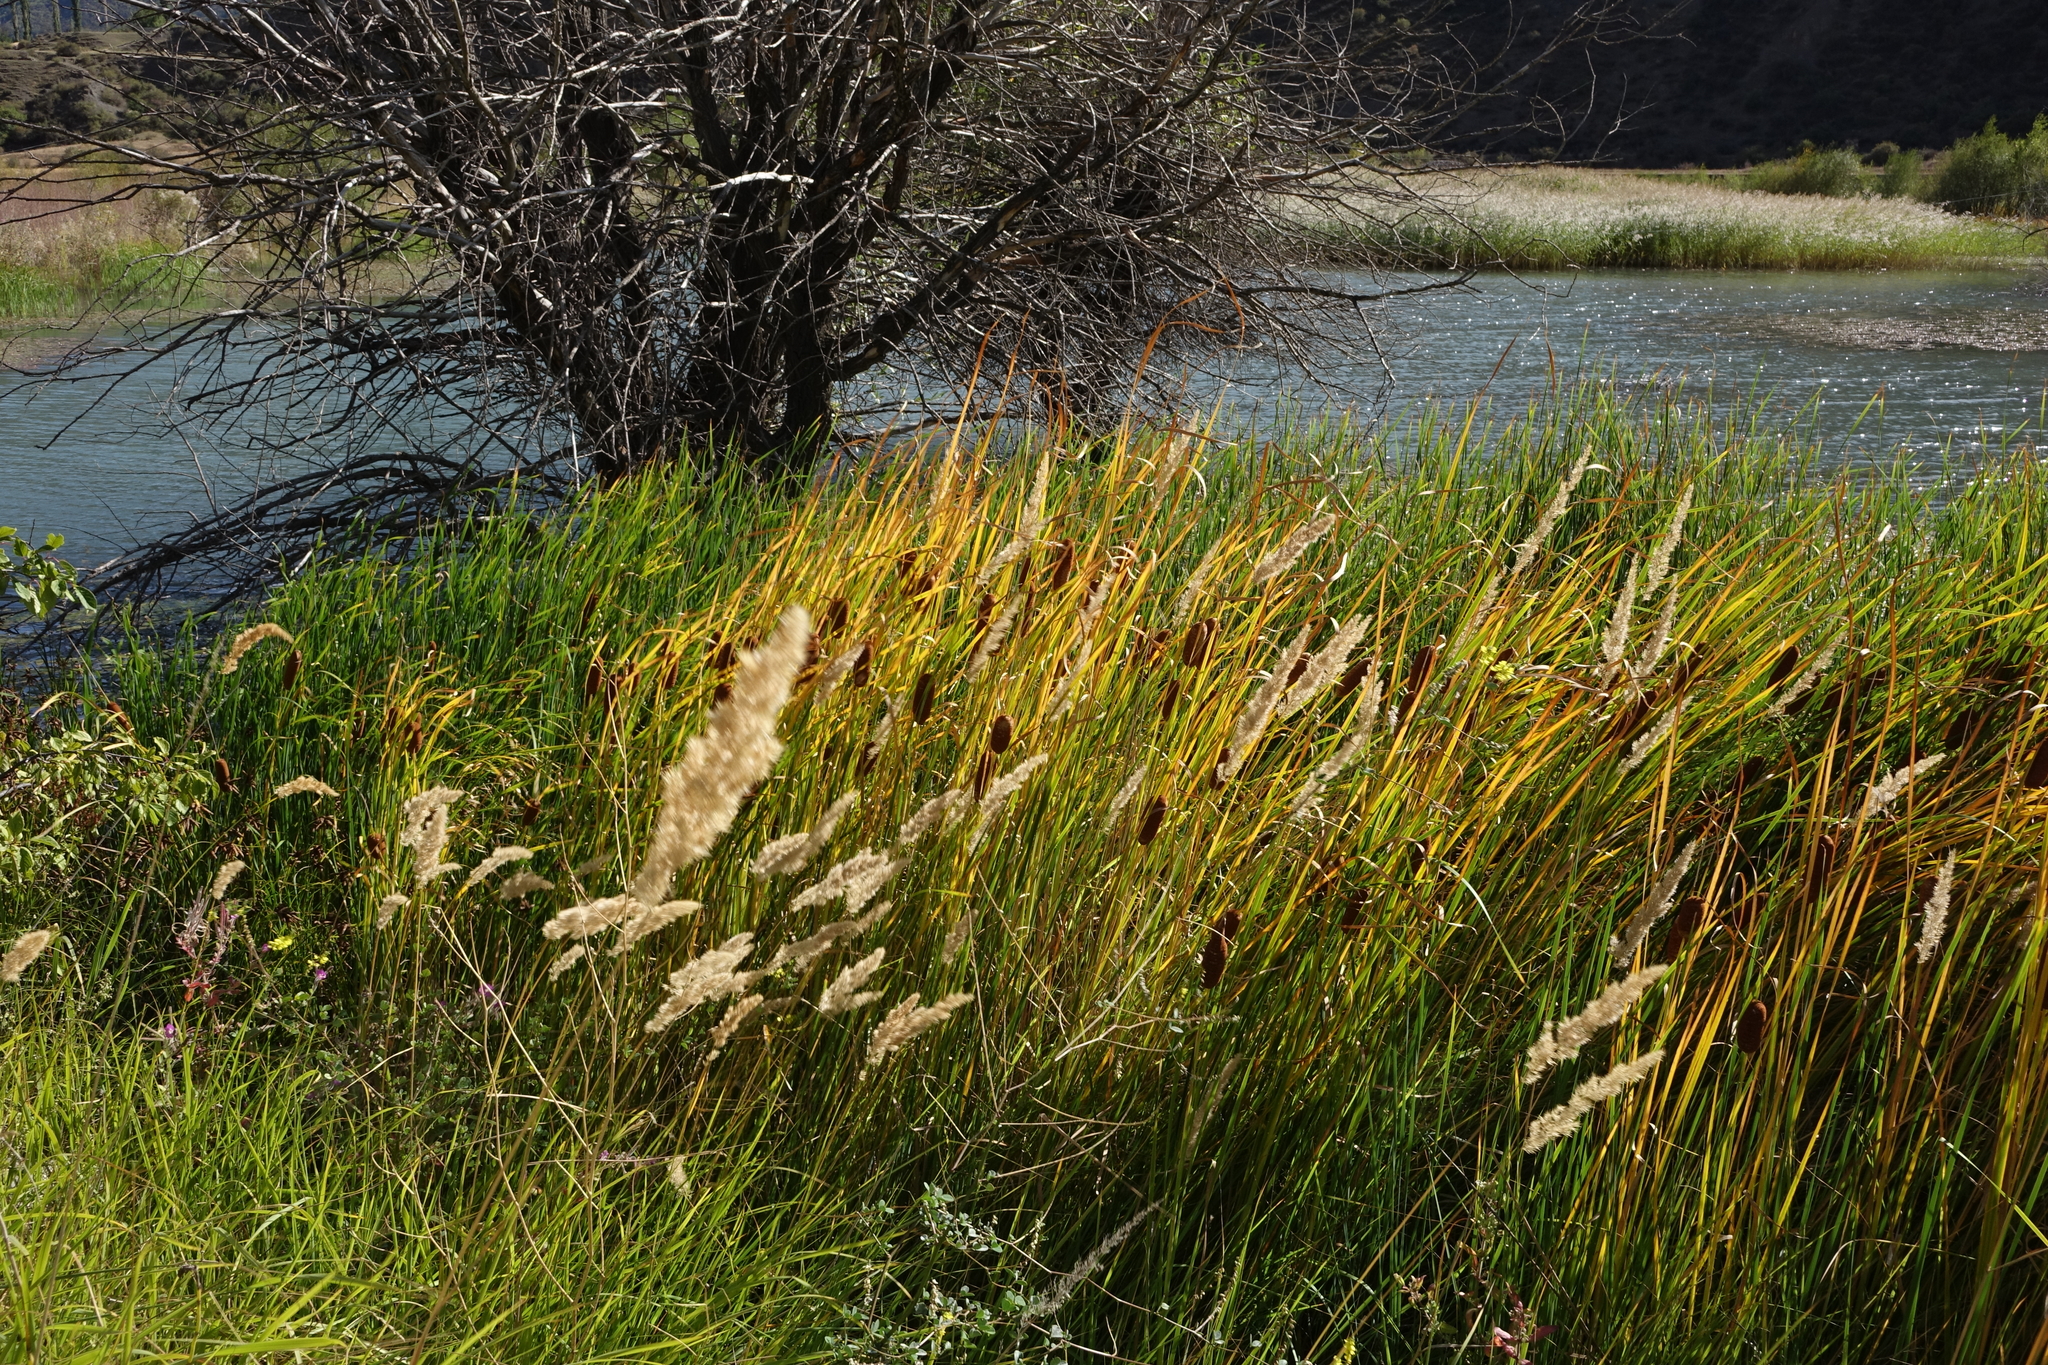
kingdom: Plantae
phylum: Tracheophyta
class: Liliopsida
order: Poales
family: Typhaceae
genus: Typha
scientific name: Typha laxmannii
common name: Laxman’s bulrush
